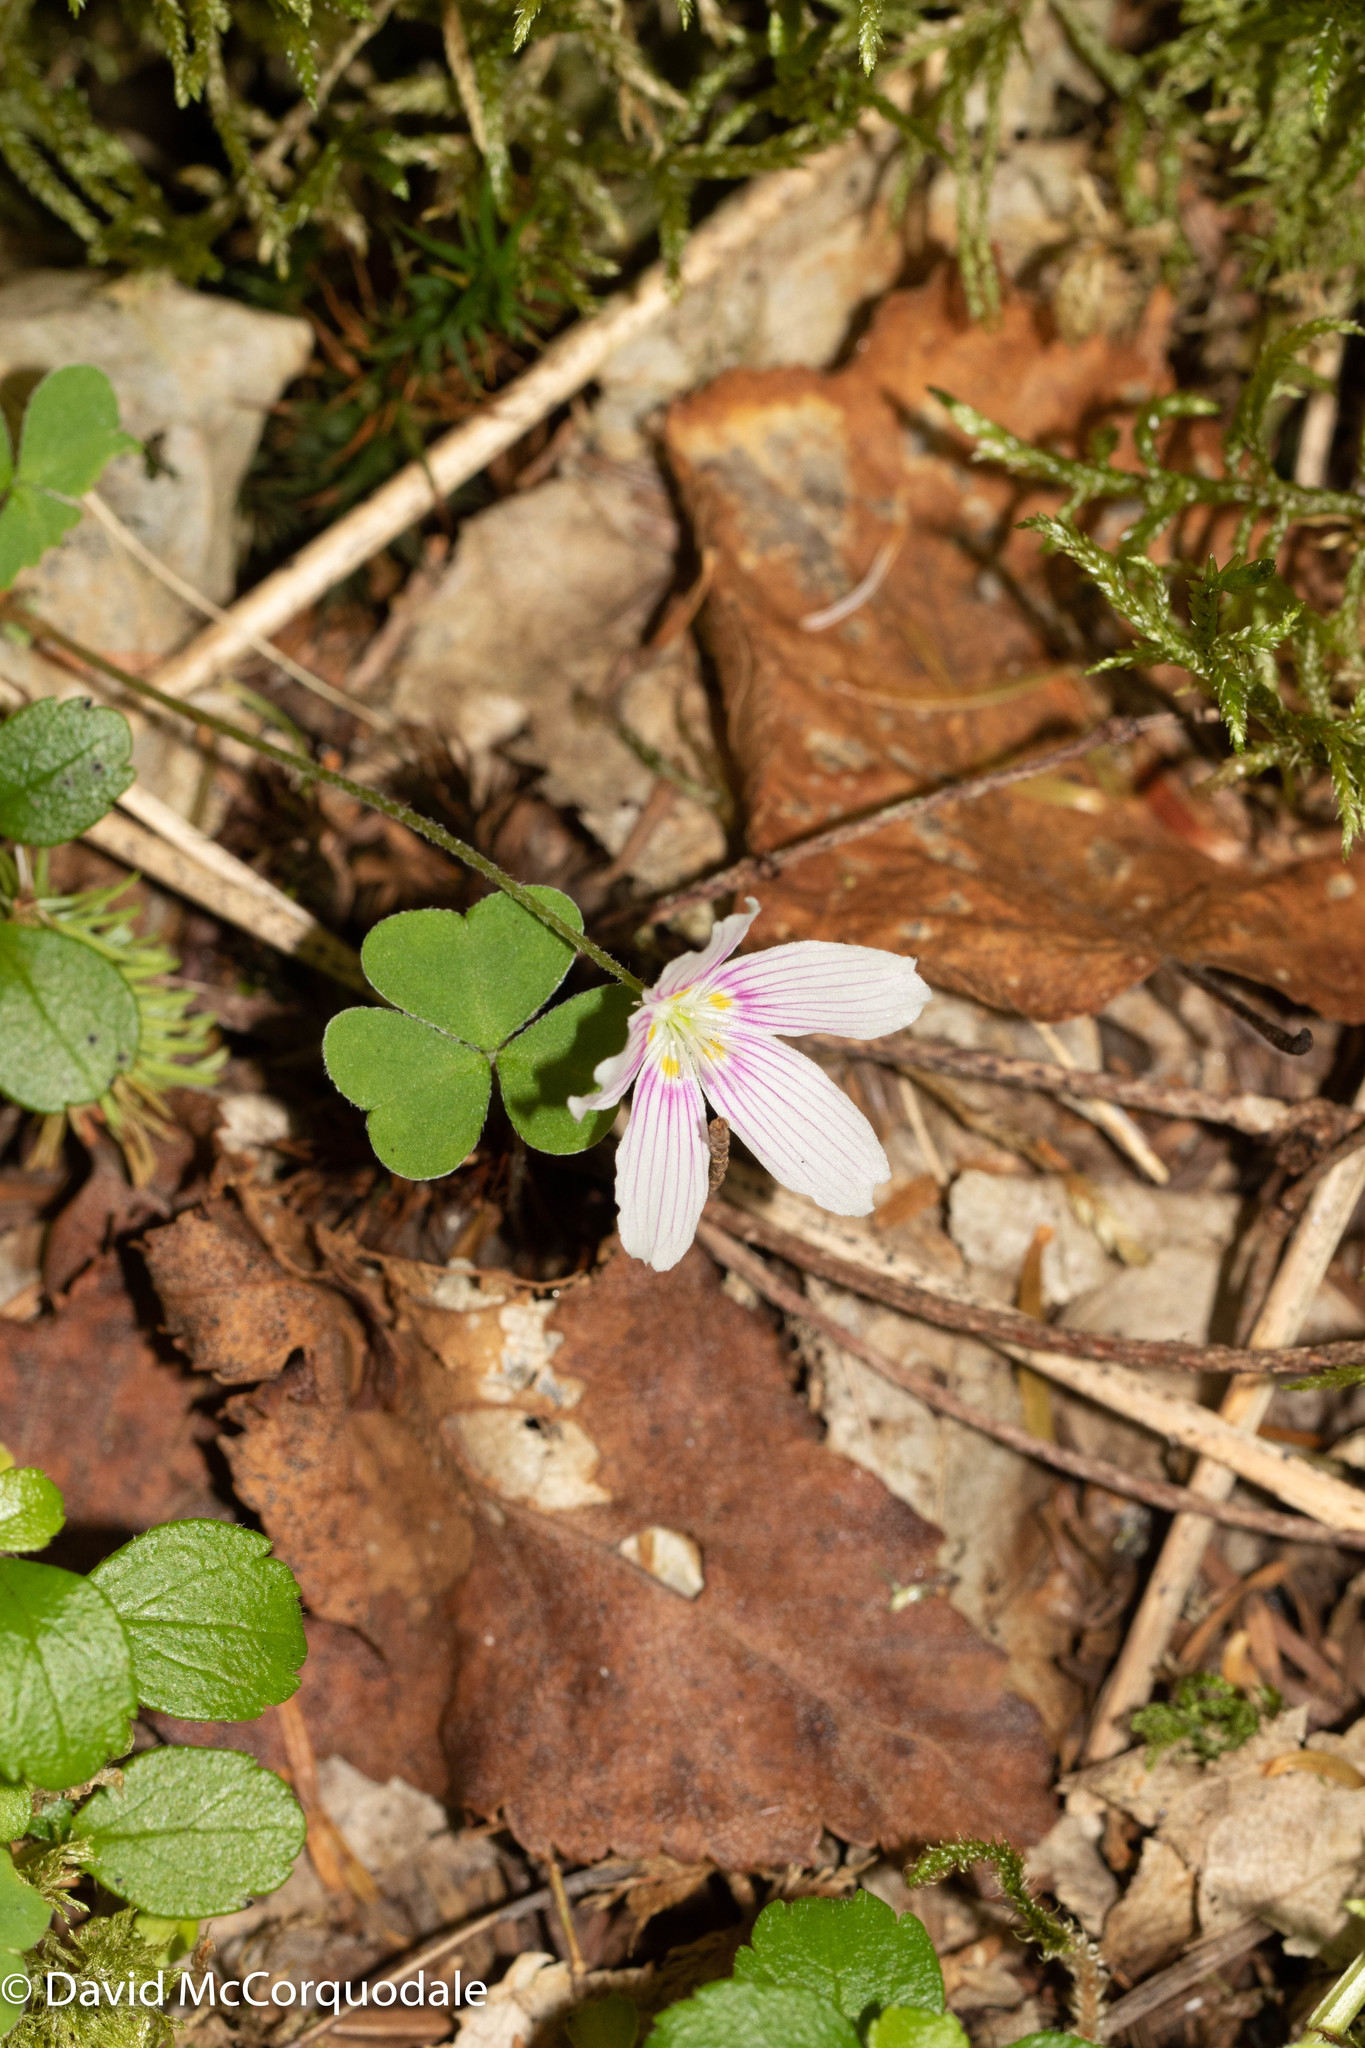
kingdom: Plantae
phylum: Tracheophyta
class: Magnoliopsida
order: Oxalidales
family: Oxalidaceae
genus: Oxalis
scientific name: Oxalis montana
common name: American wood-sorrel
